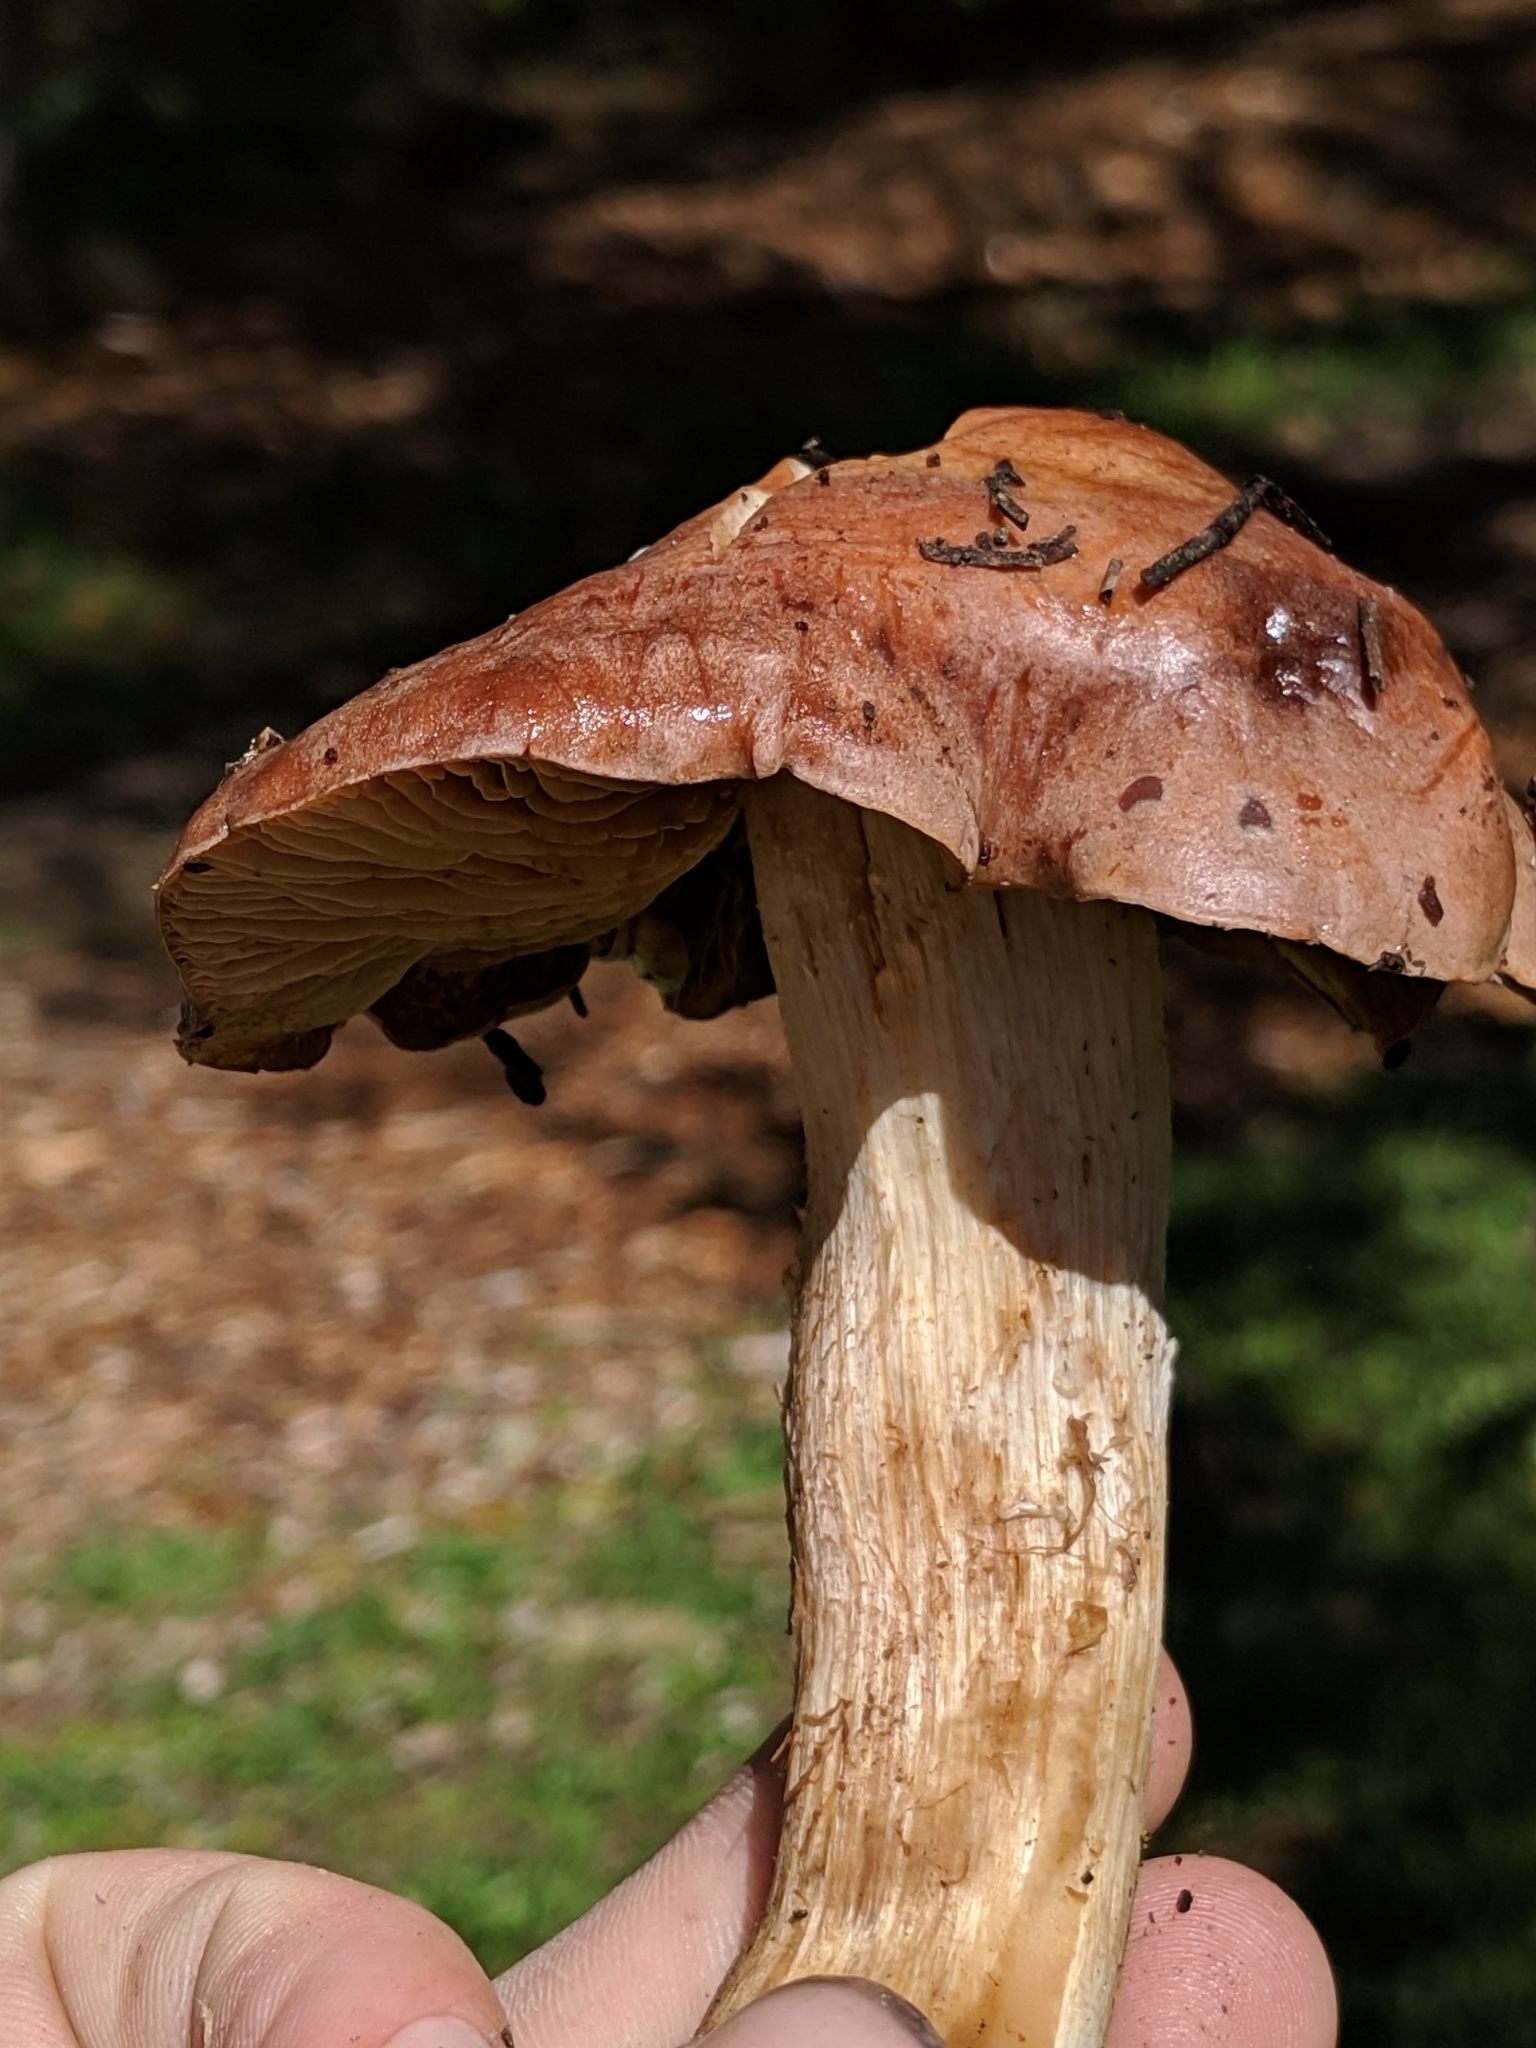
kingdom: Fungi
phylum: Basidiomycota
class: Agaricomycetes
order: Agaricales
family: Hymenogastraceae
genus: Hebeloma
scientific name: Hebeloma theobrominum
